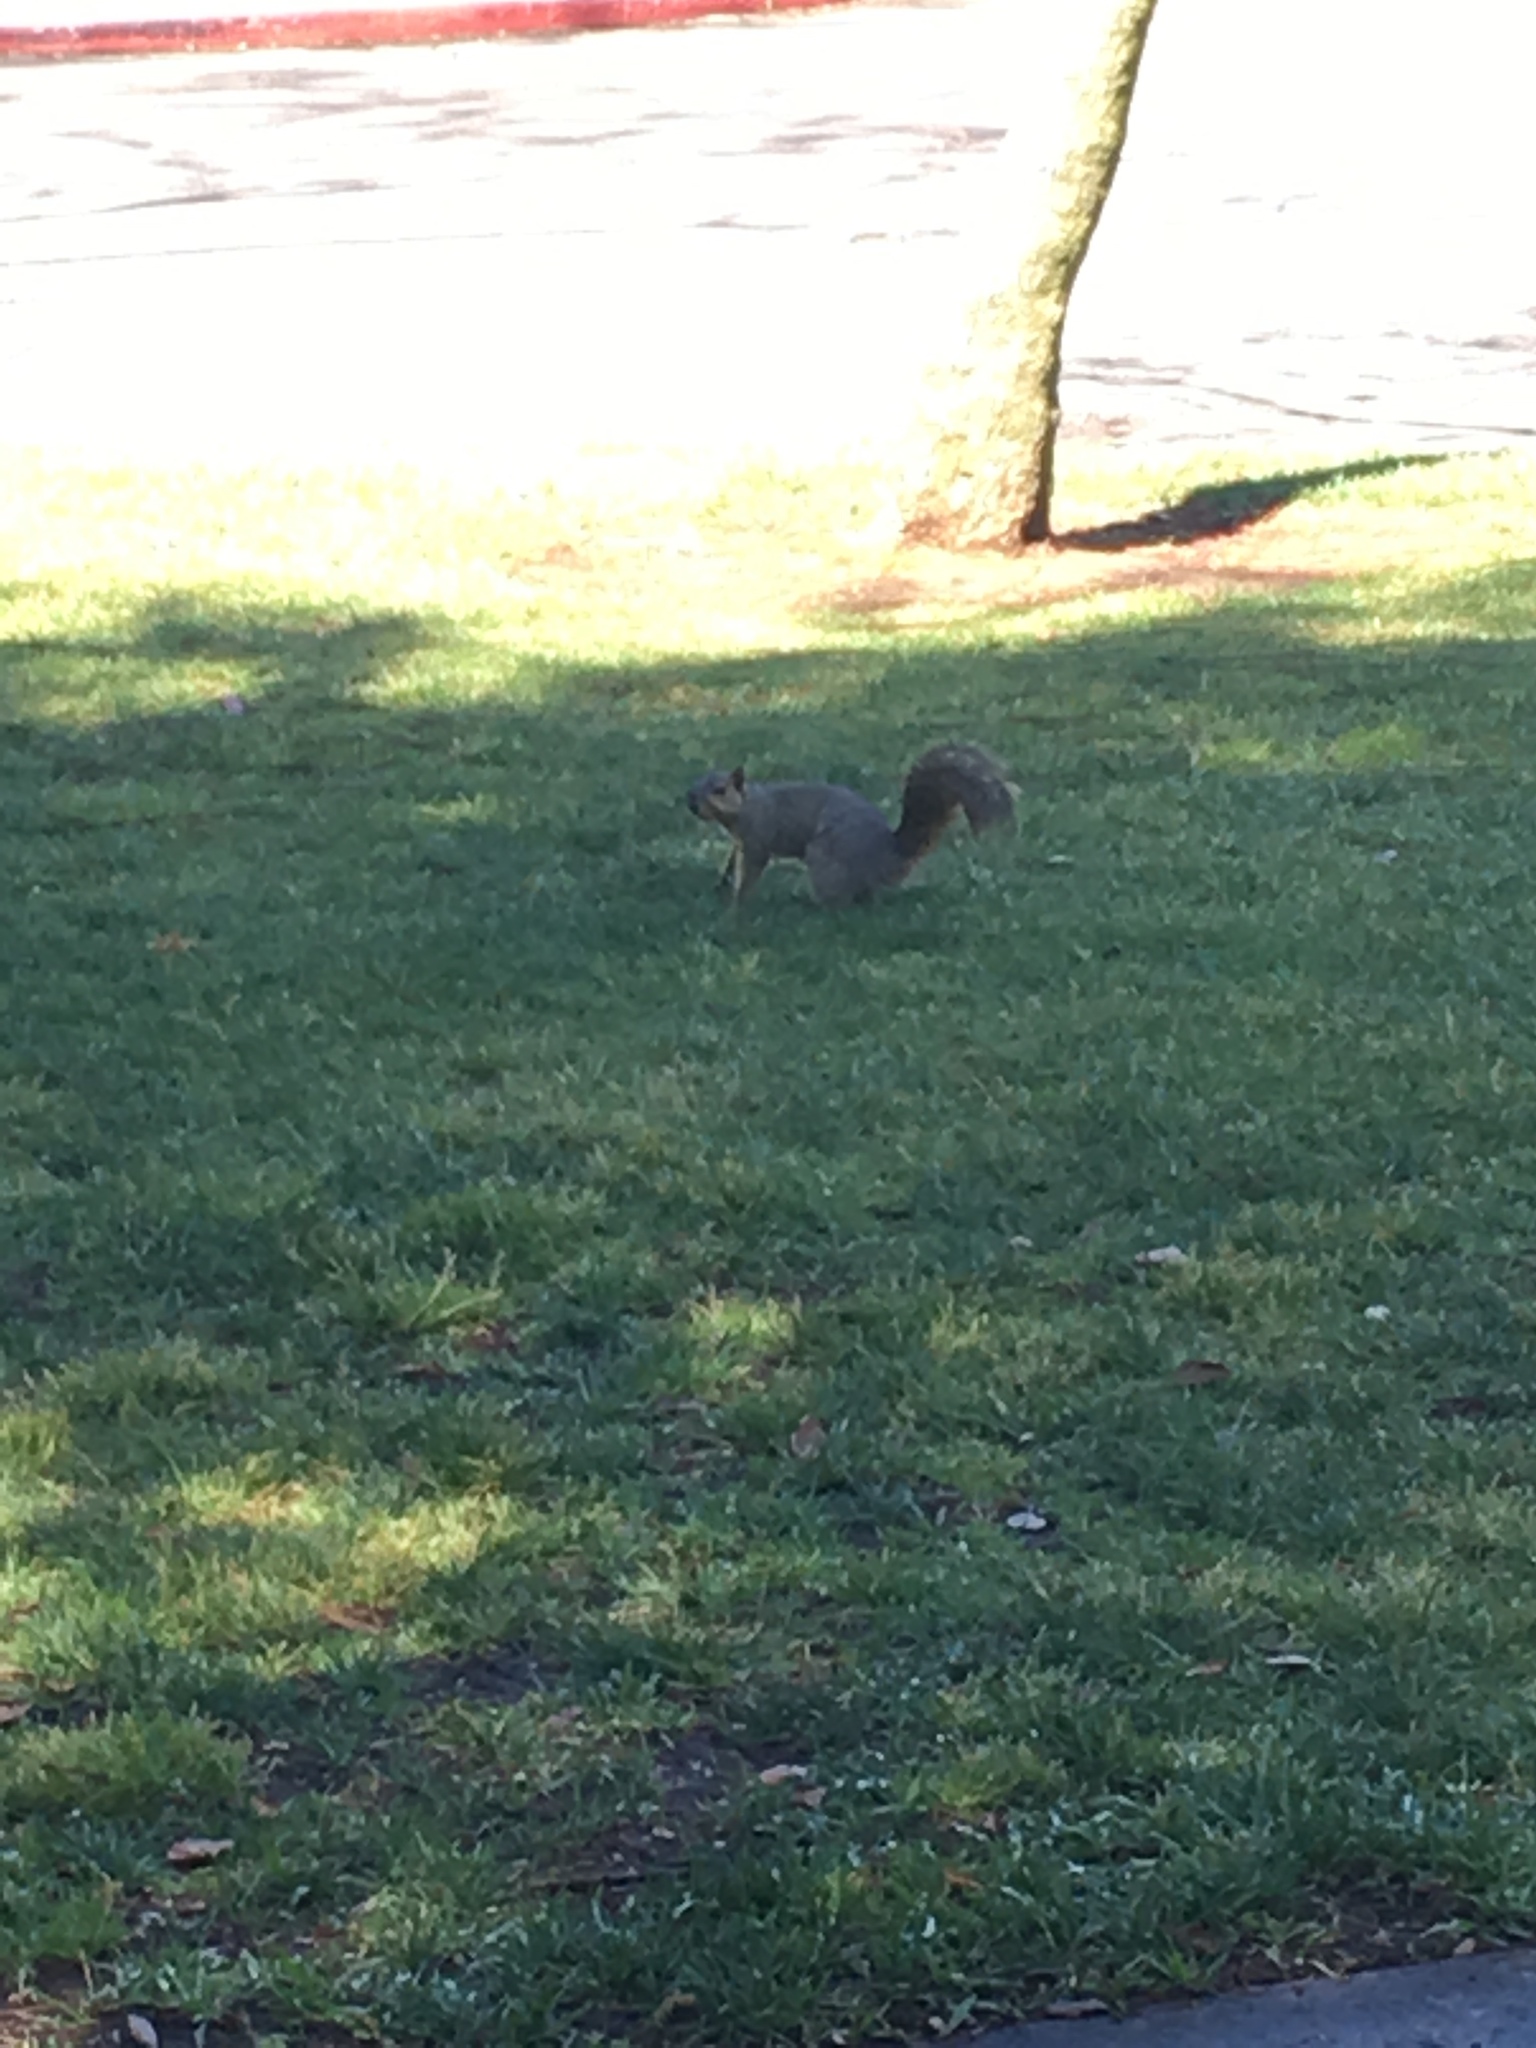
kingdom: Animalia
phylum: Chordata
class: Mammalia
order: Rodentia
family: Sciuridae
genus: Sciurus
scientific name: Sciurus niger
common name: Fox squirrel
